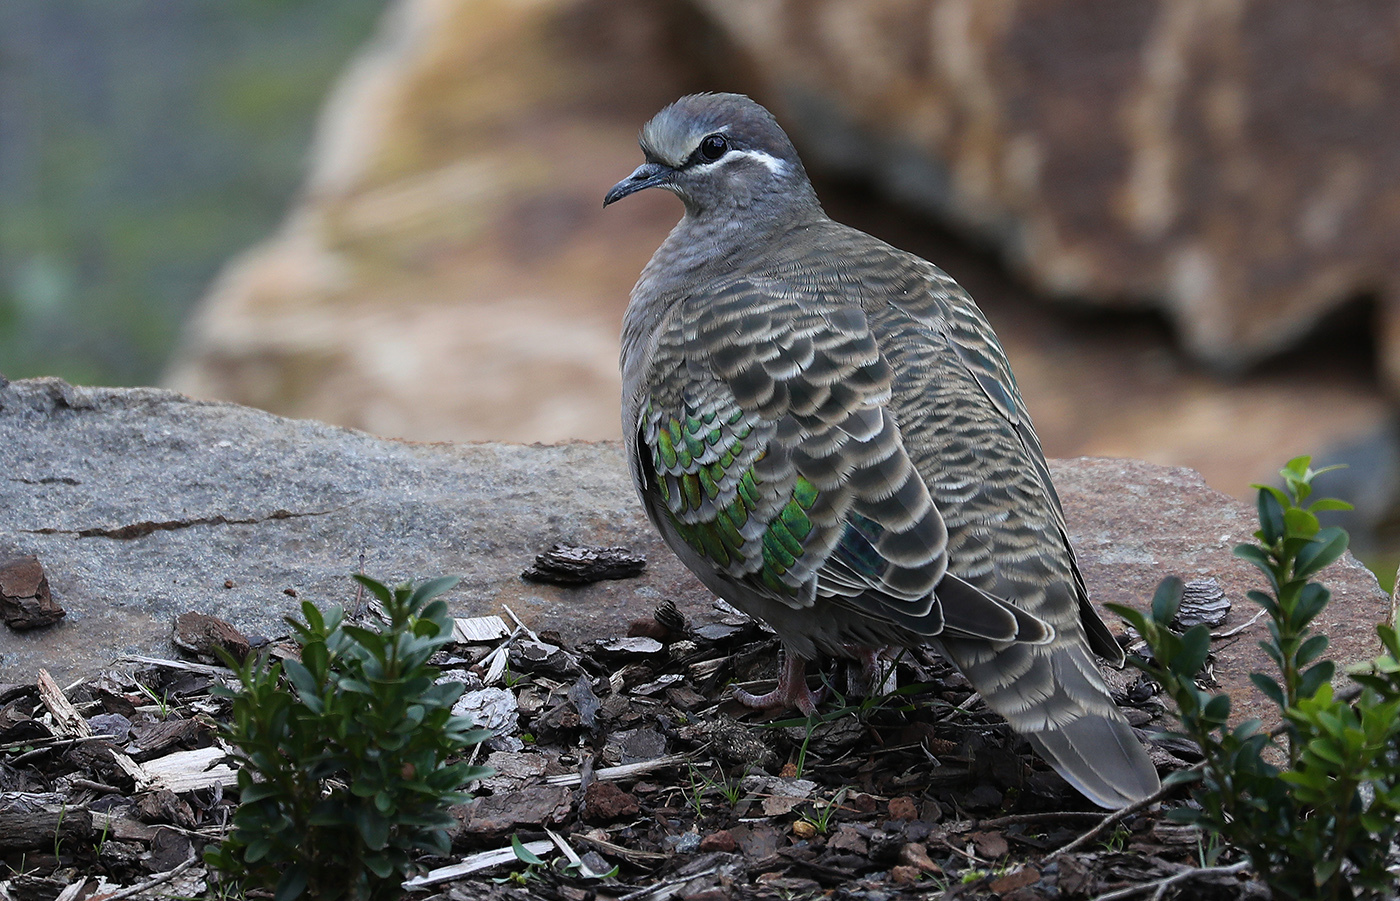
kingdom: Animalia
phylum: Chordata
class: Aves
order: Columbiformes
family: Columbidae
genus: Phaps
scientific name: Phaps chalcoptera
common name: Common bronzewing
